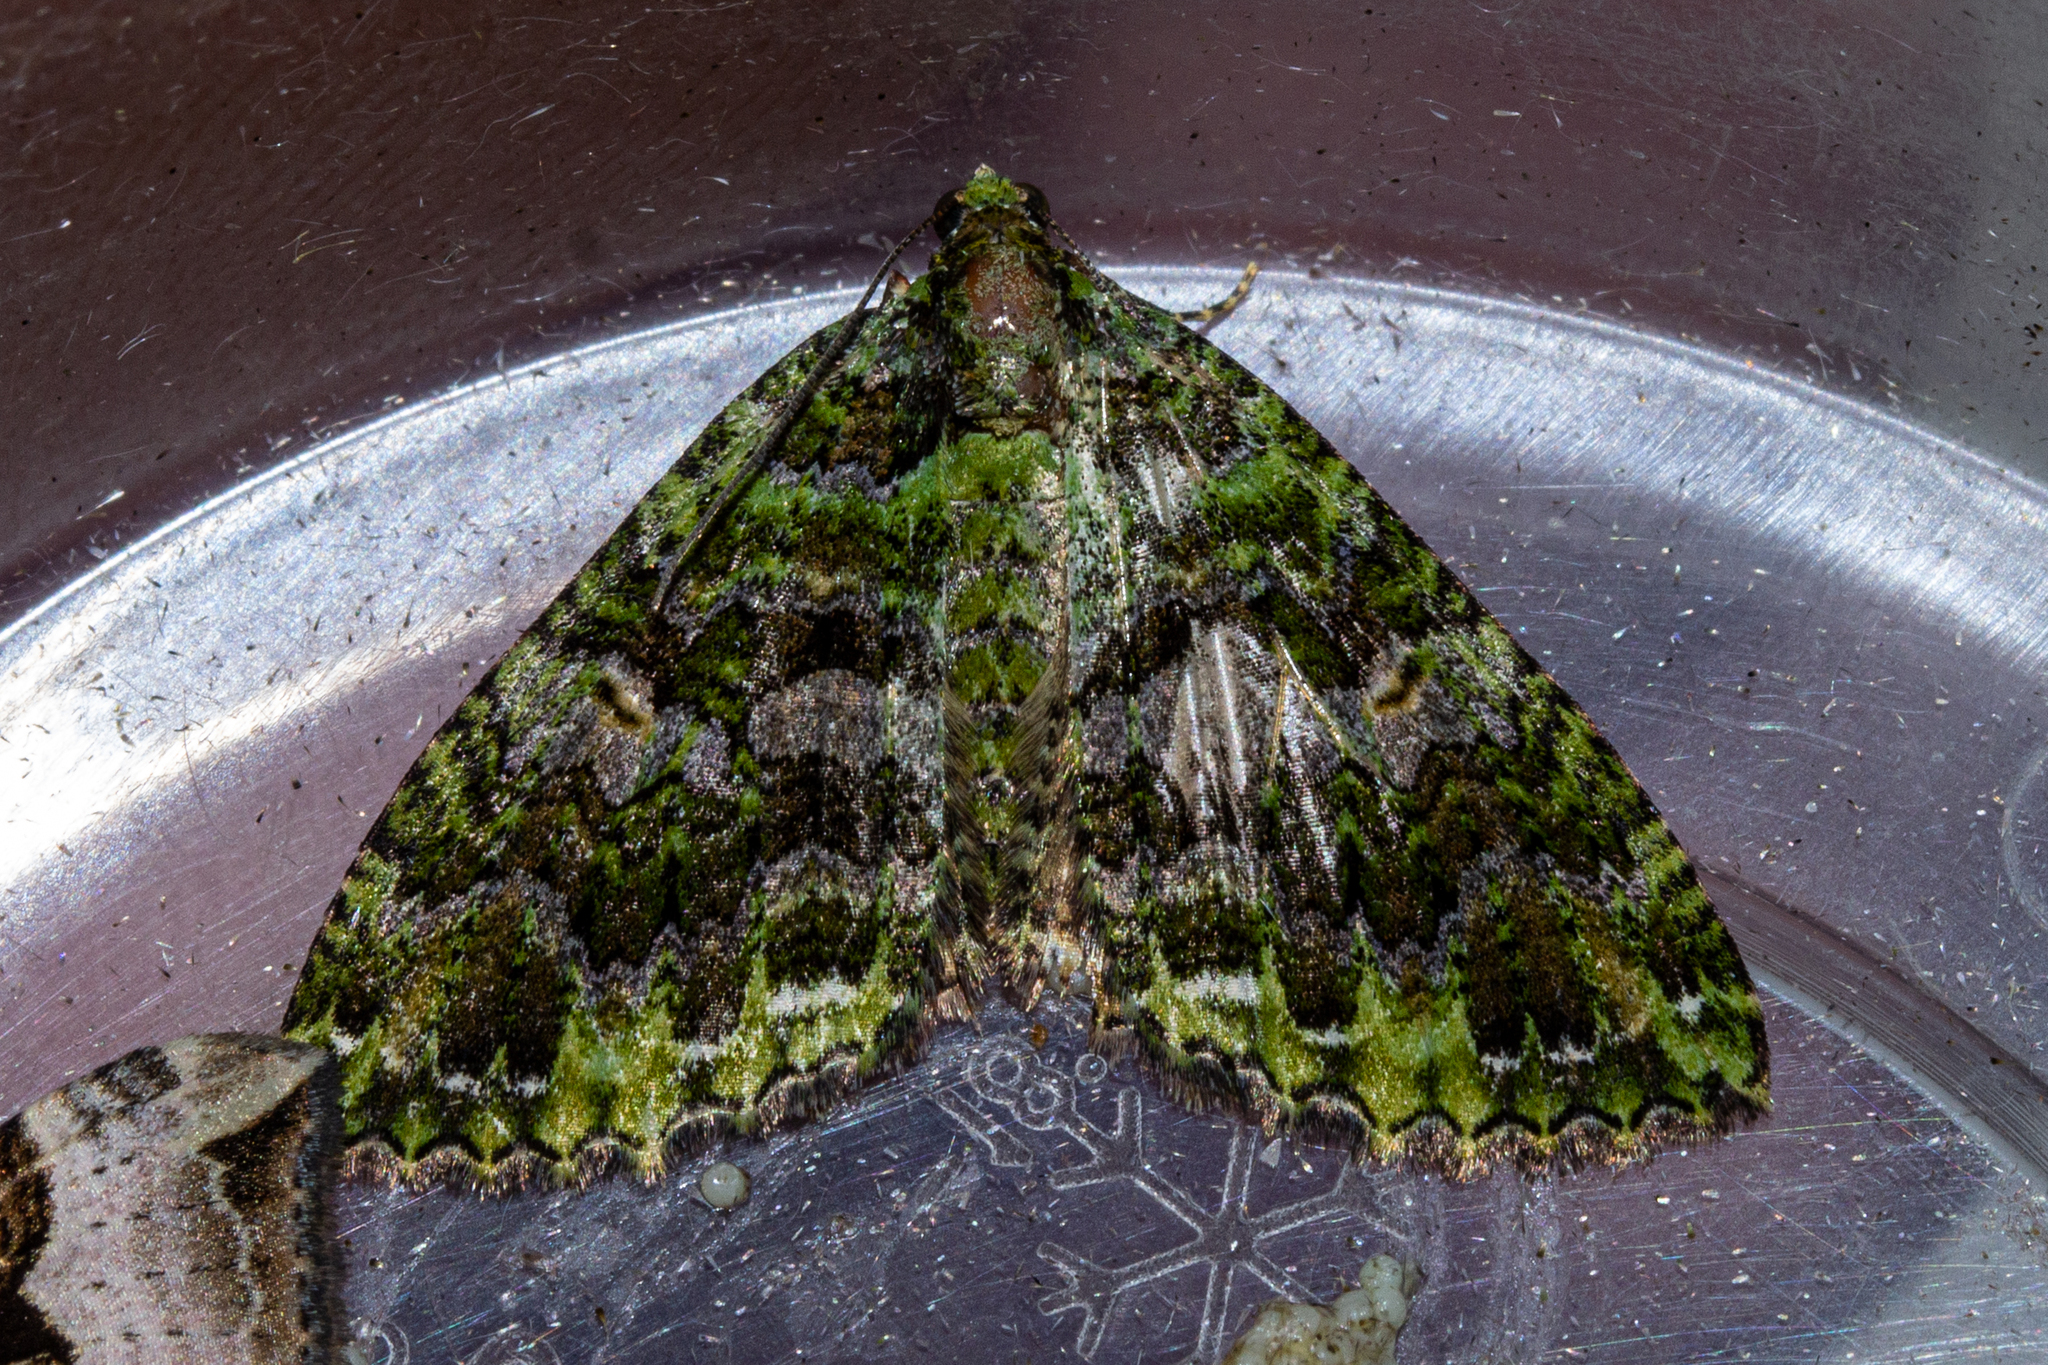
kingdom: Animalia
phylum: Arthropoda
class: Insecta
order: Lepidoptera
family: Geometridae
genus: Austrocidaria
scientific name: Austrocidaria similata
